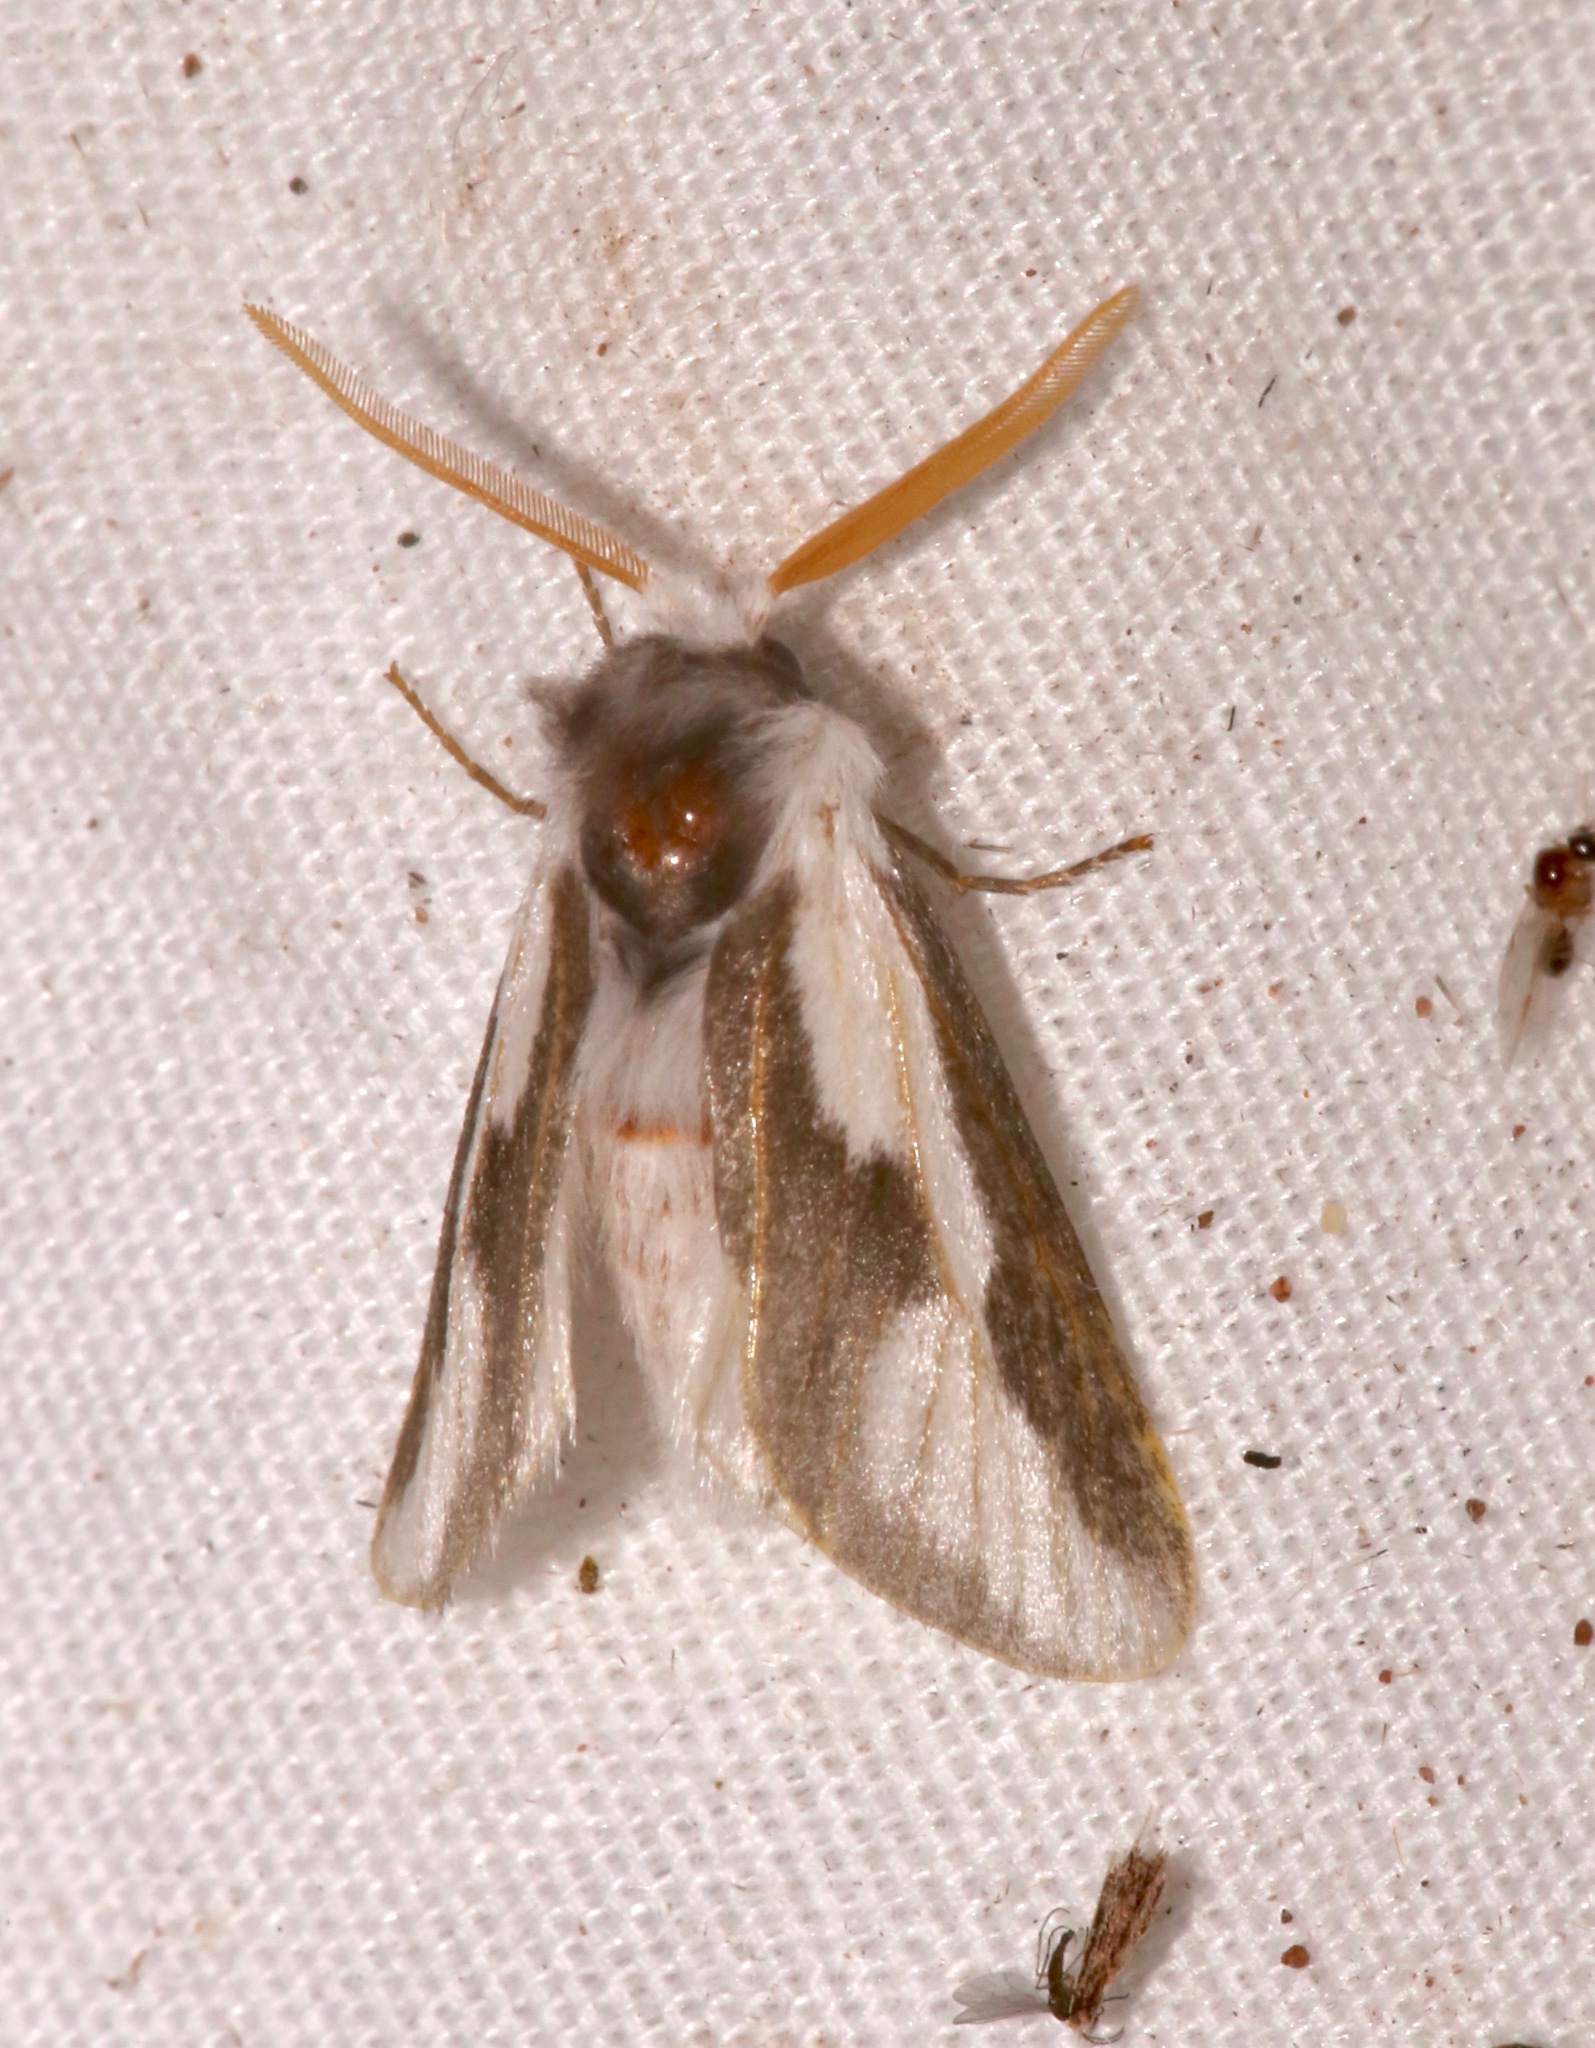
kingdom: Animalia
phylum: Arthropoda
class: Insecta
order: Lepidoptera
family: Megalopygidae
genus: Norape
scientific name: Norape tener
